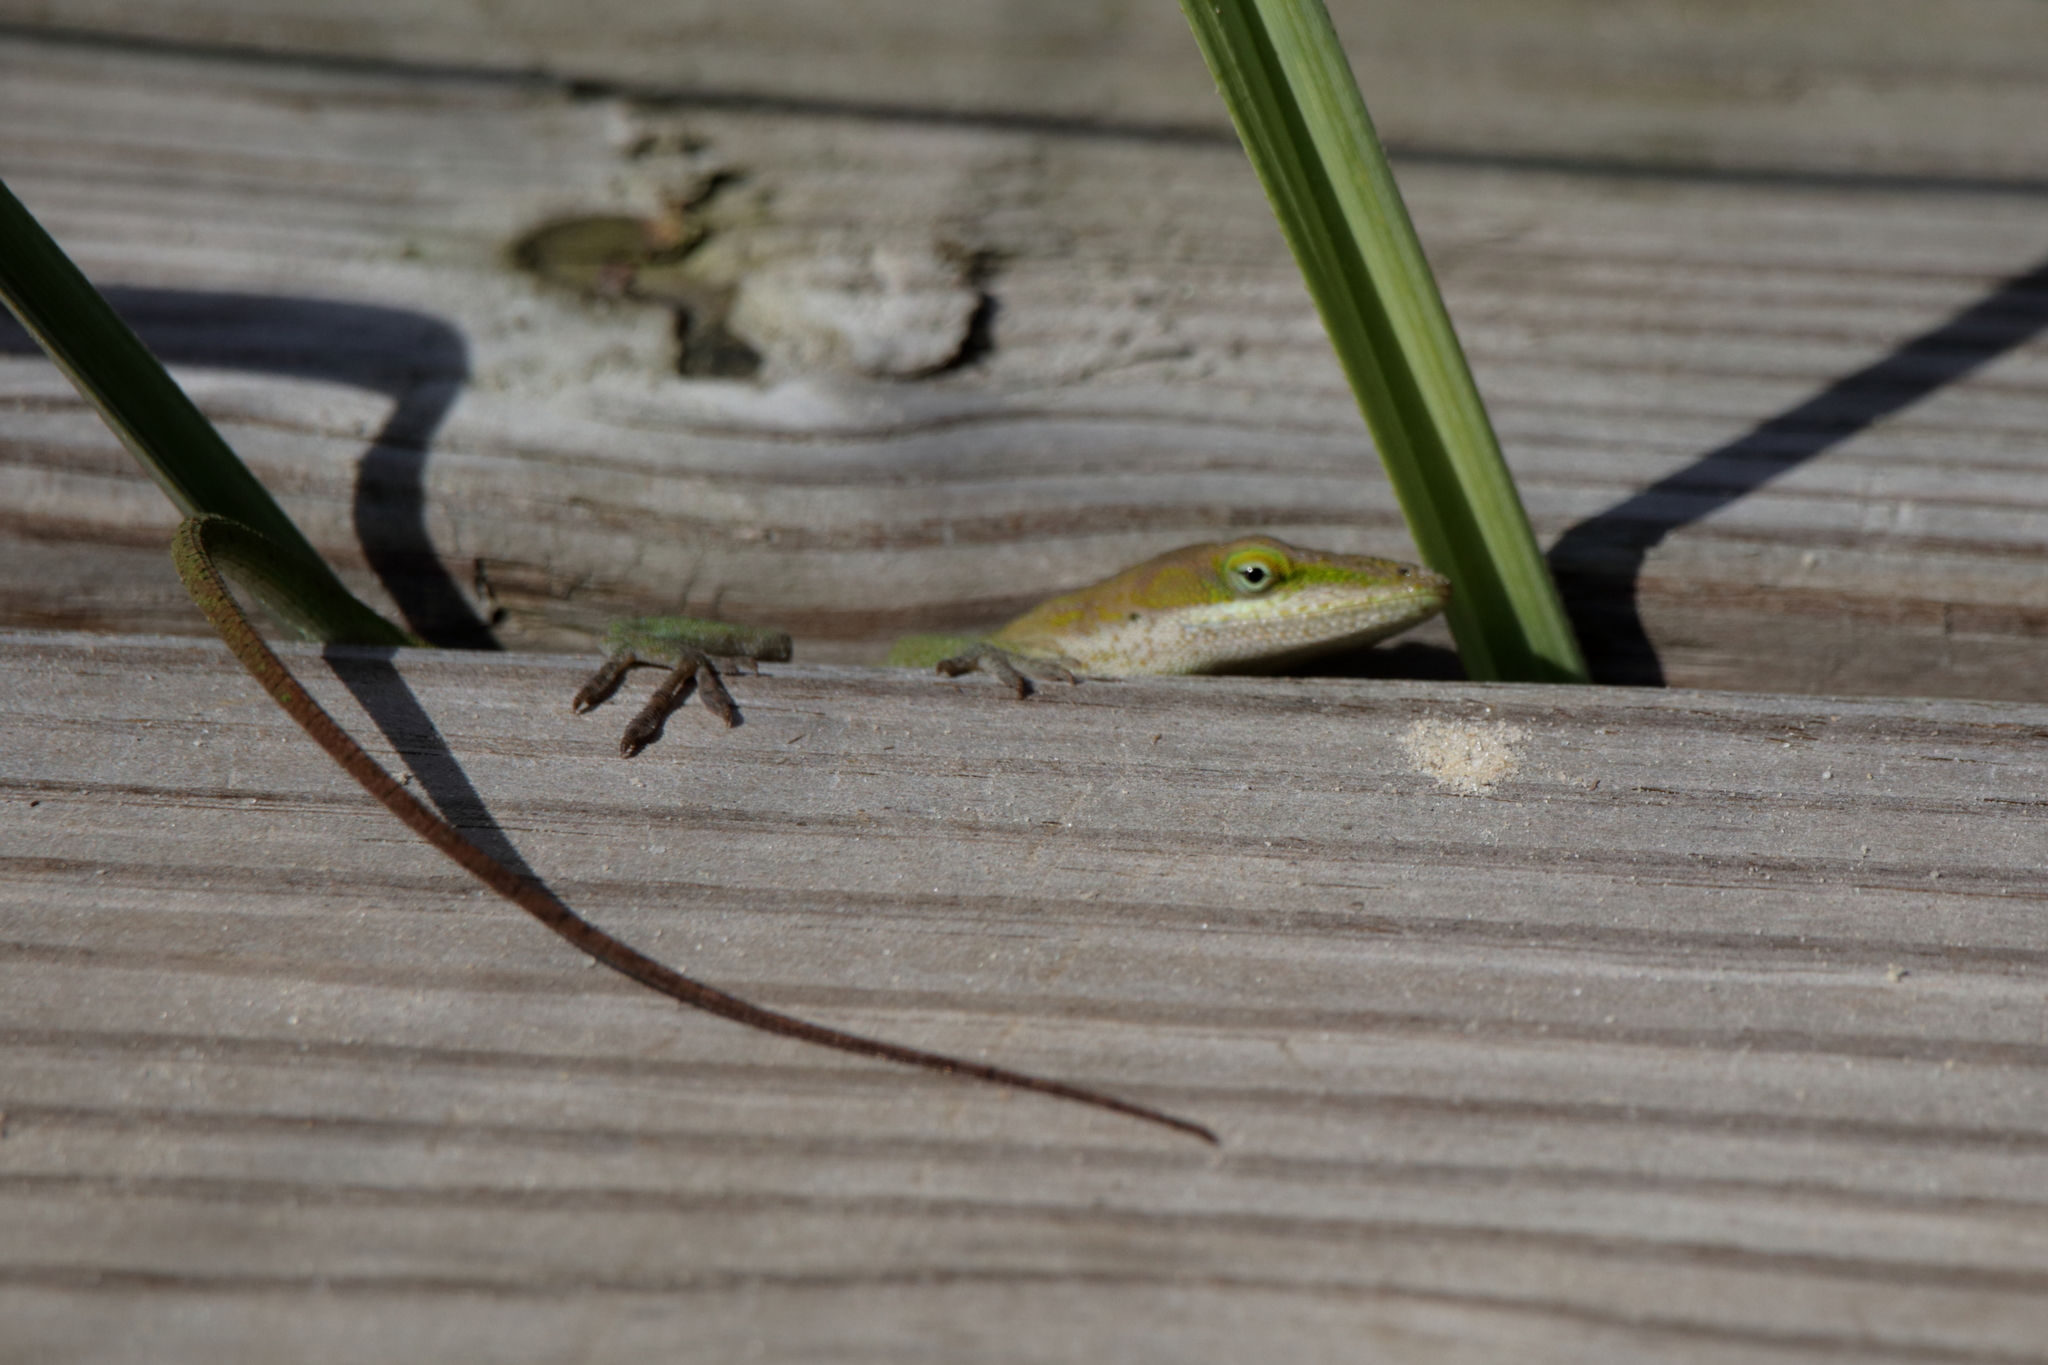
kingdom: Animalia
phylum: Chordata
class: Squamata
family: Dactyloidae
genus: Anolis
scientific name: Anolis carolinensis
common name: Green anole
